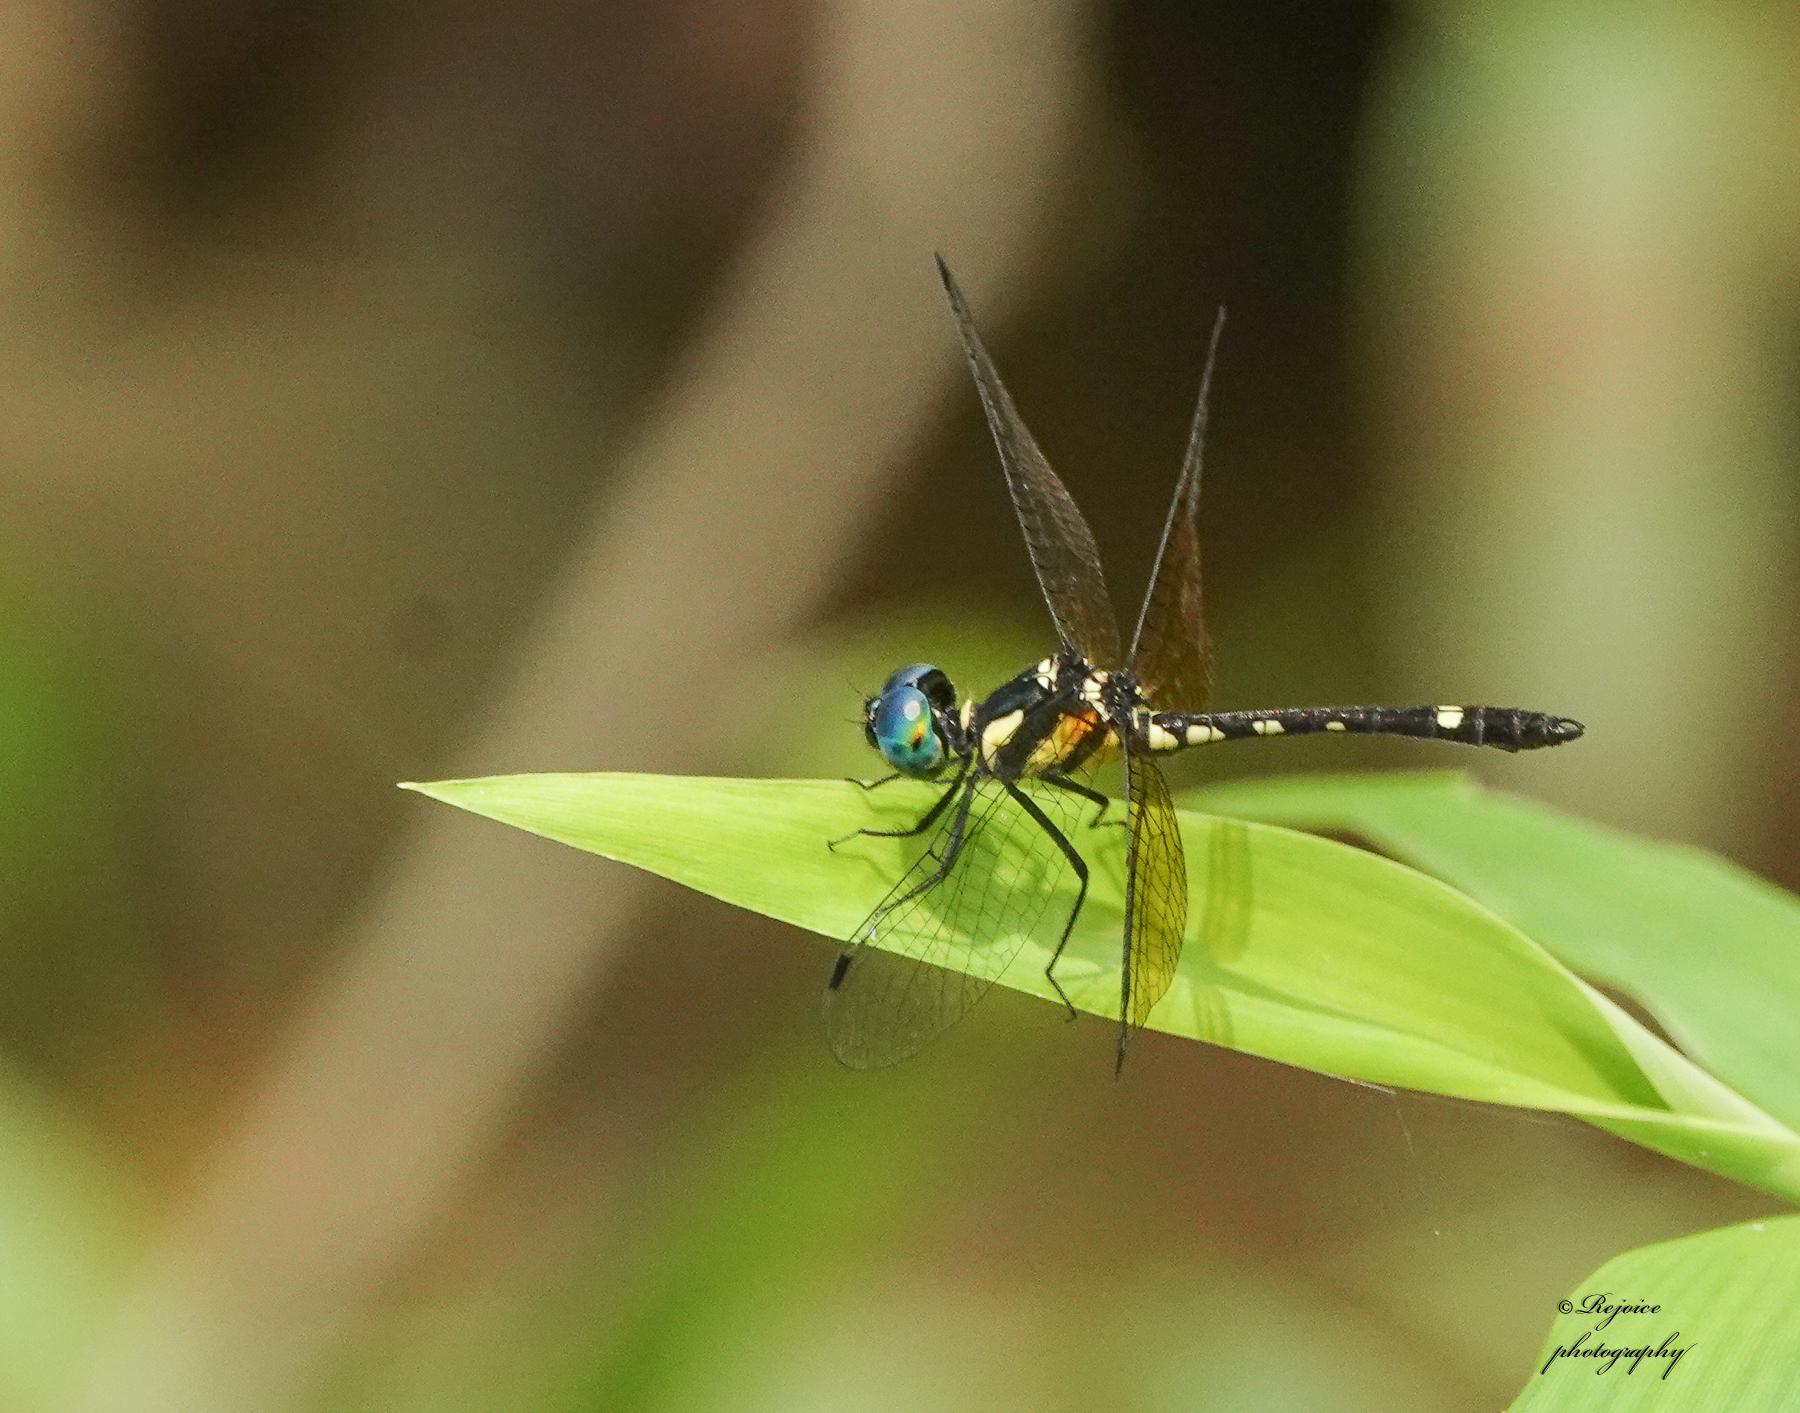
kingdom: Animalia
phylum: Arthropoda
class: Insecta
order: Odonata
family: Libellulidae
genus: Tetrathemis
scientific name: Tetrathemis platyptera
